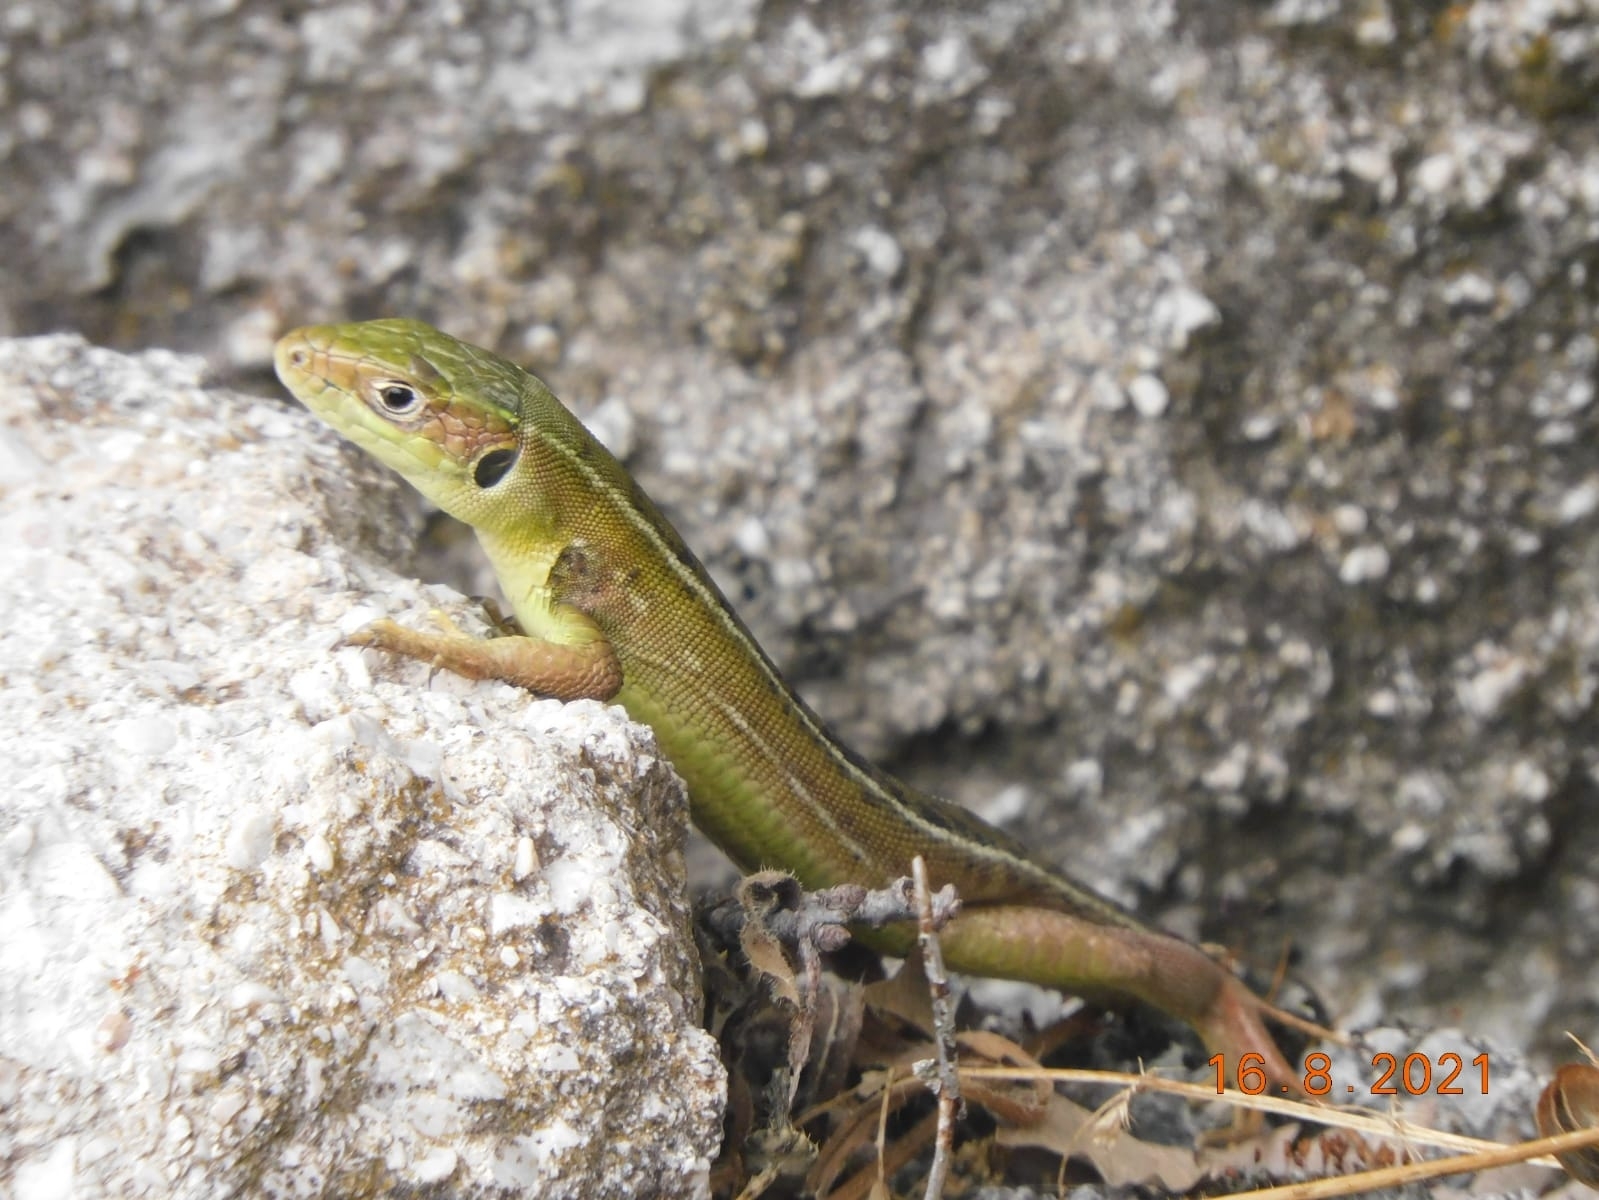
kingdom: Animalia
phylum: Chordata
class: Squamata
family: Lacertidae
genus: Lacerta
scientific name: Lacerta bilineata
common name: Western green lizard
